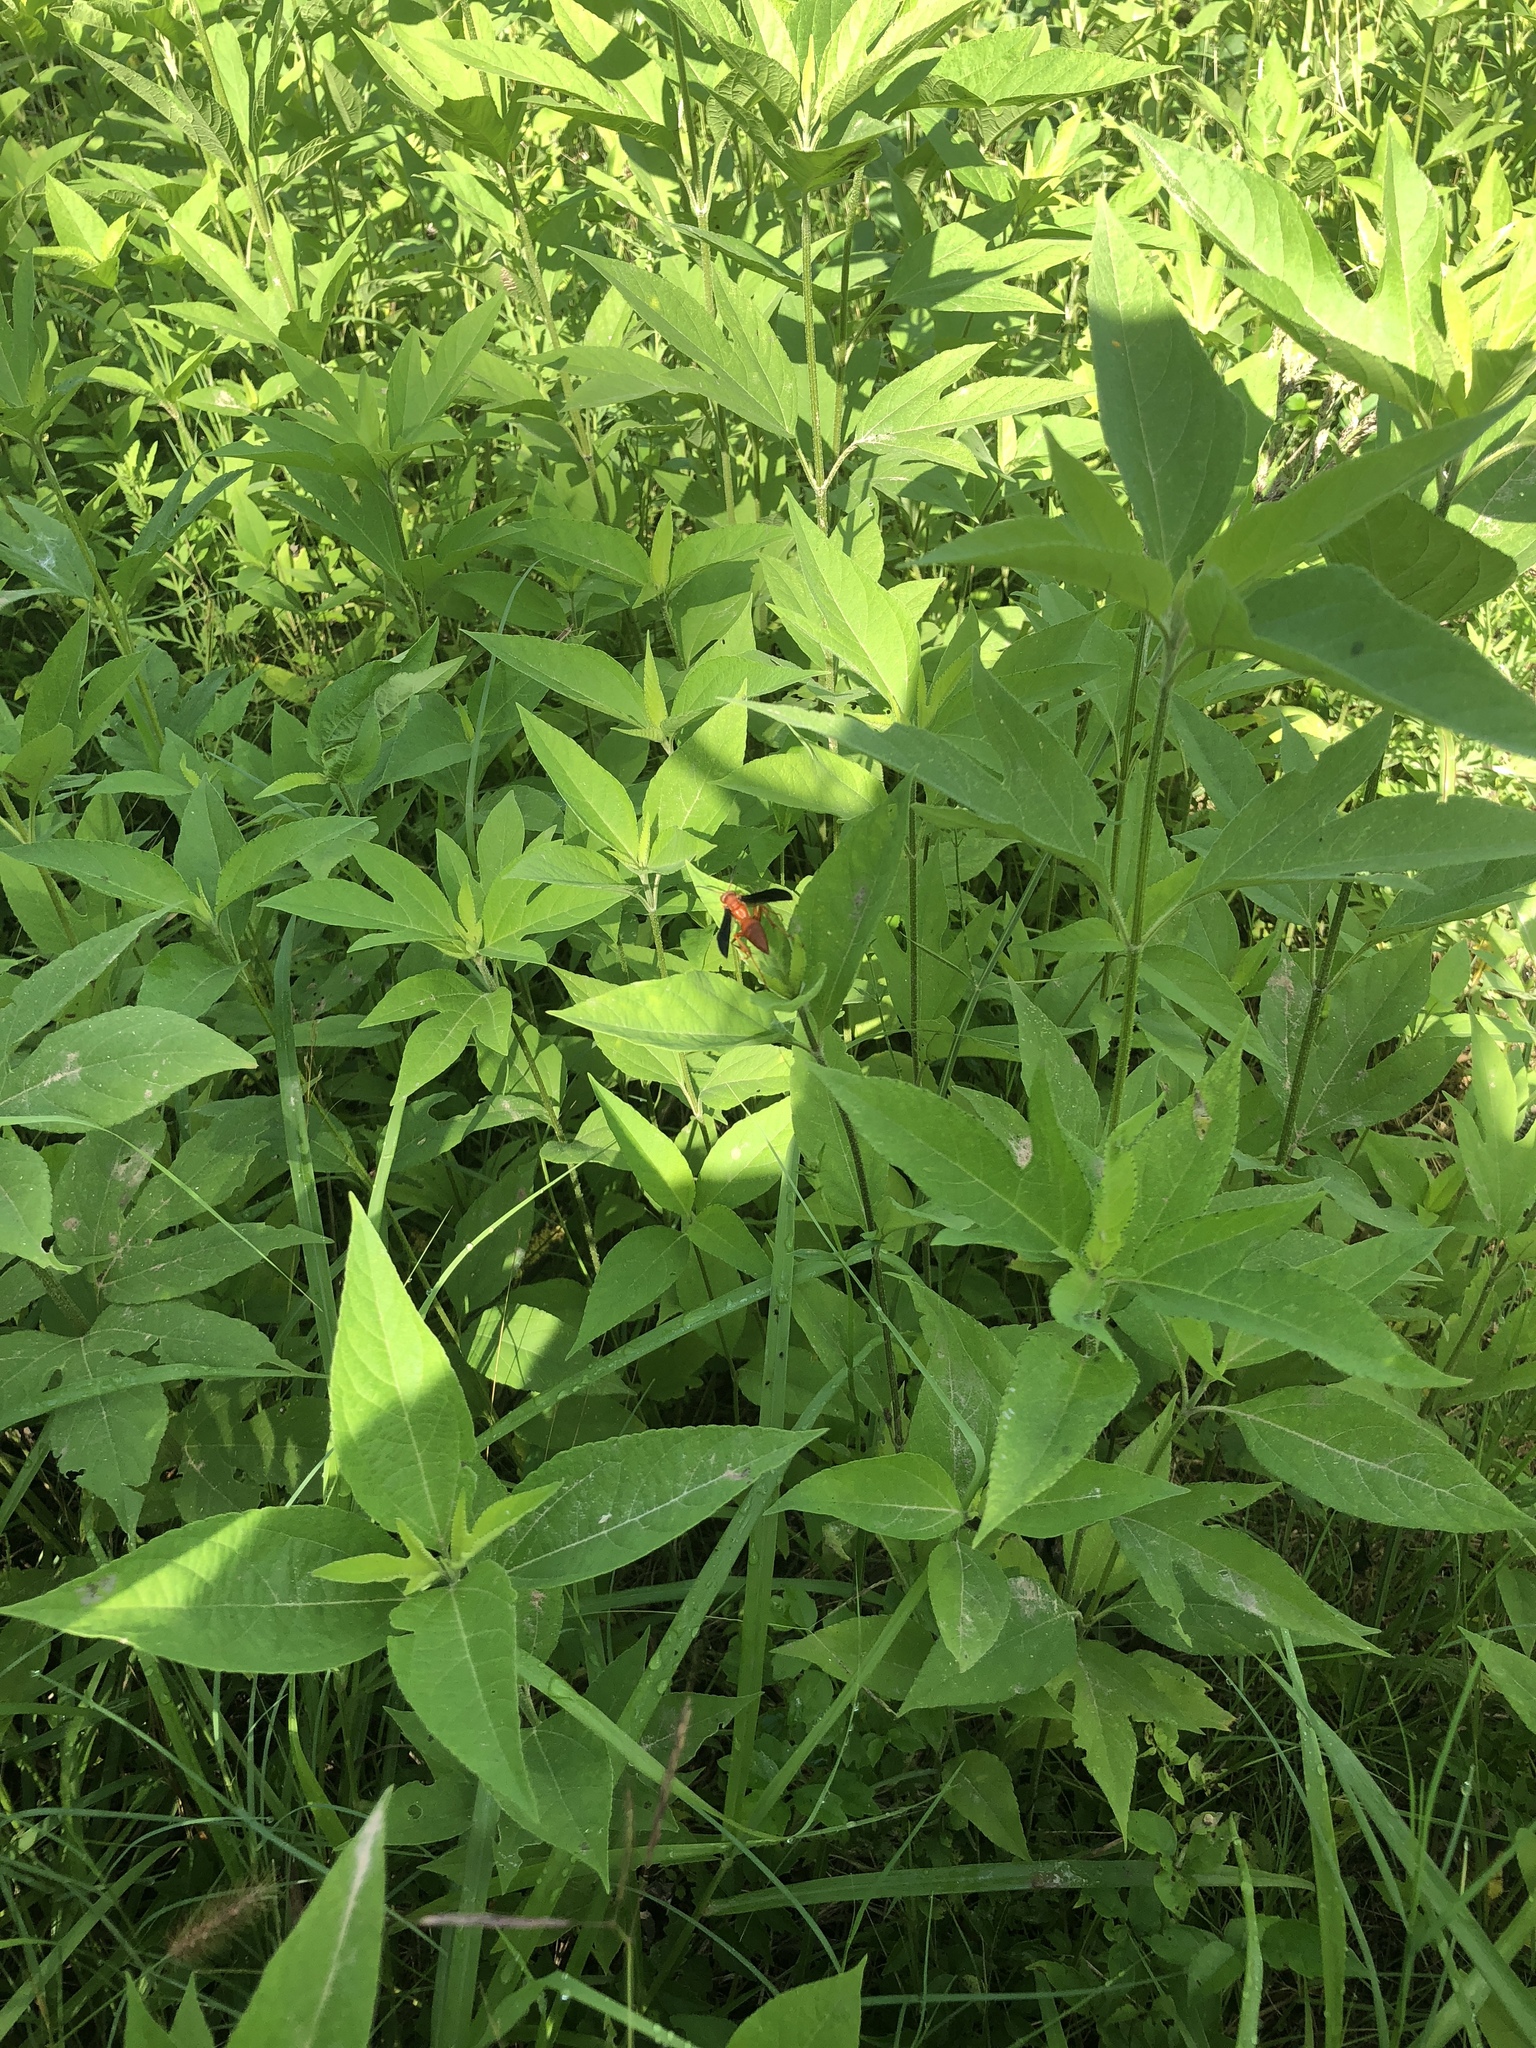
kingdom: Animalia
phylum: Arthropoda
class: Insecta
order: Hymenoptera
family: Eumenidae
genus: Polistes
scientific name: Polistes
